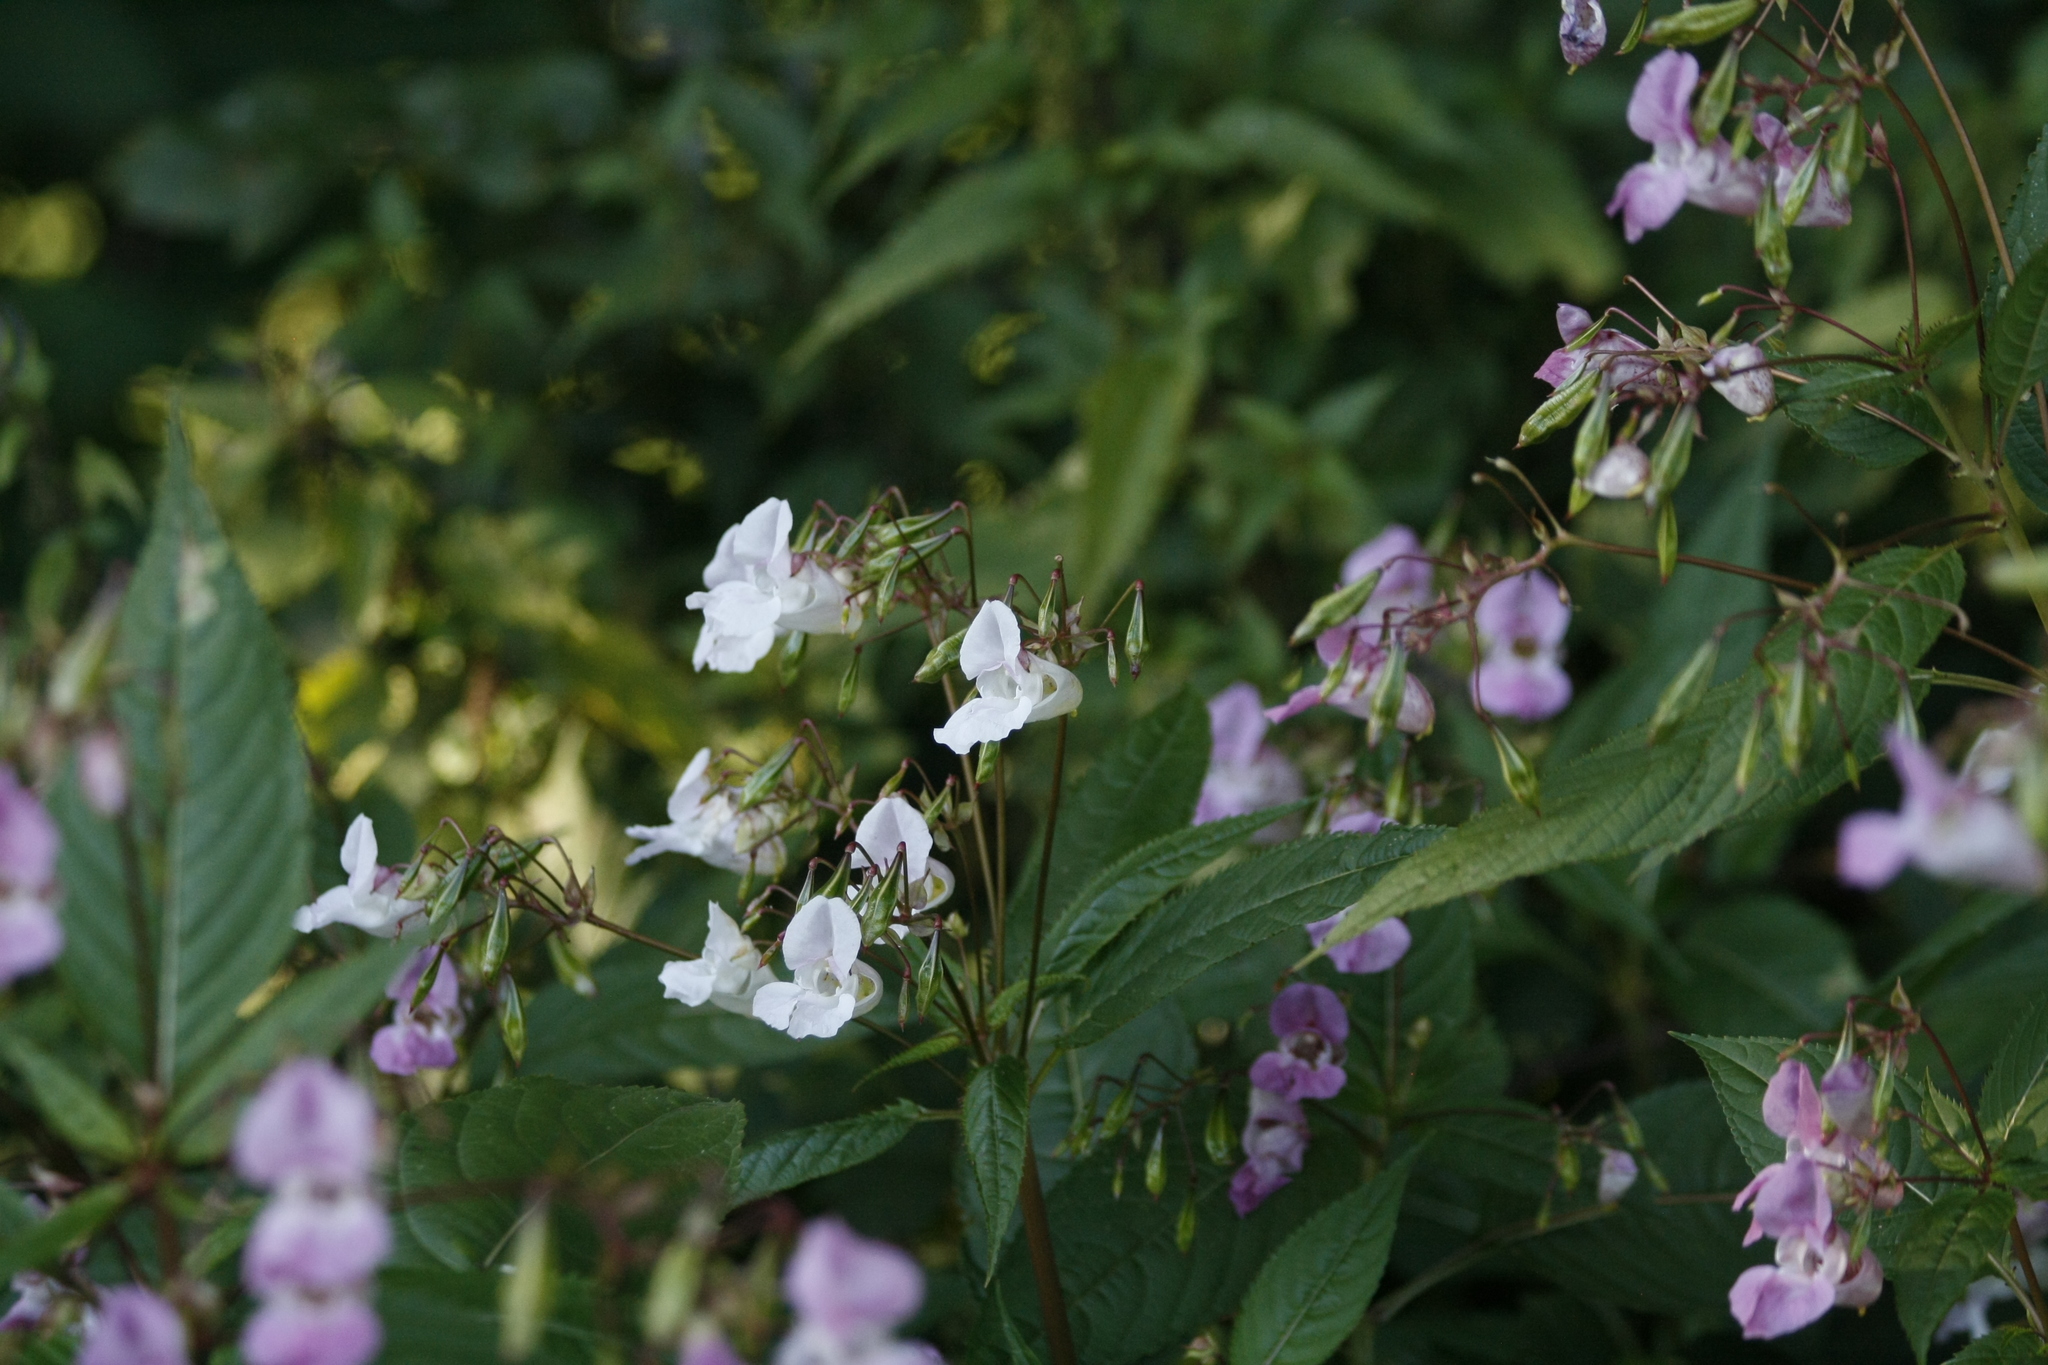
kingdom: Plantae
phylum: Tracheophyta
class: Magnoliopsida
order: Ericales
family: Balsaminaceae
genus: Impatiens
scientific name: Impatiens glandulifera
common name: Himalayan balsam
